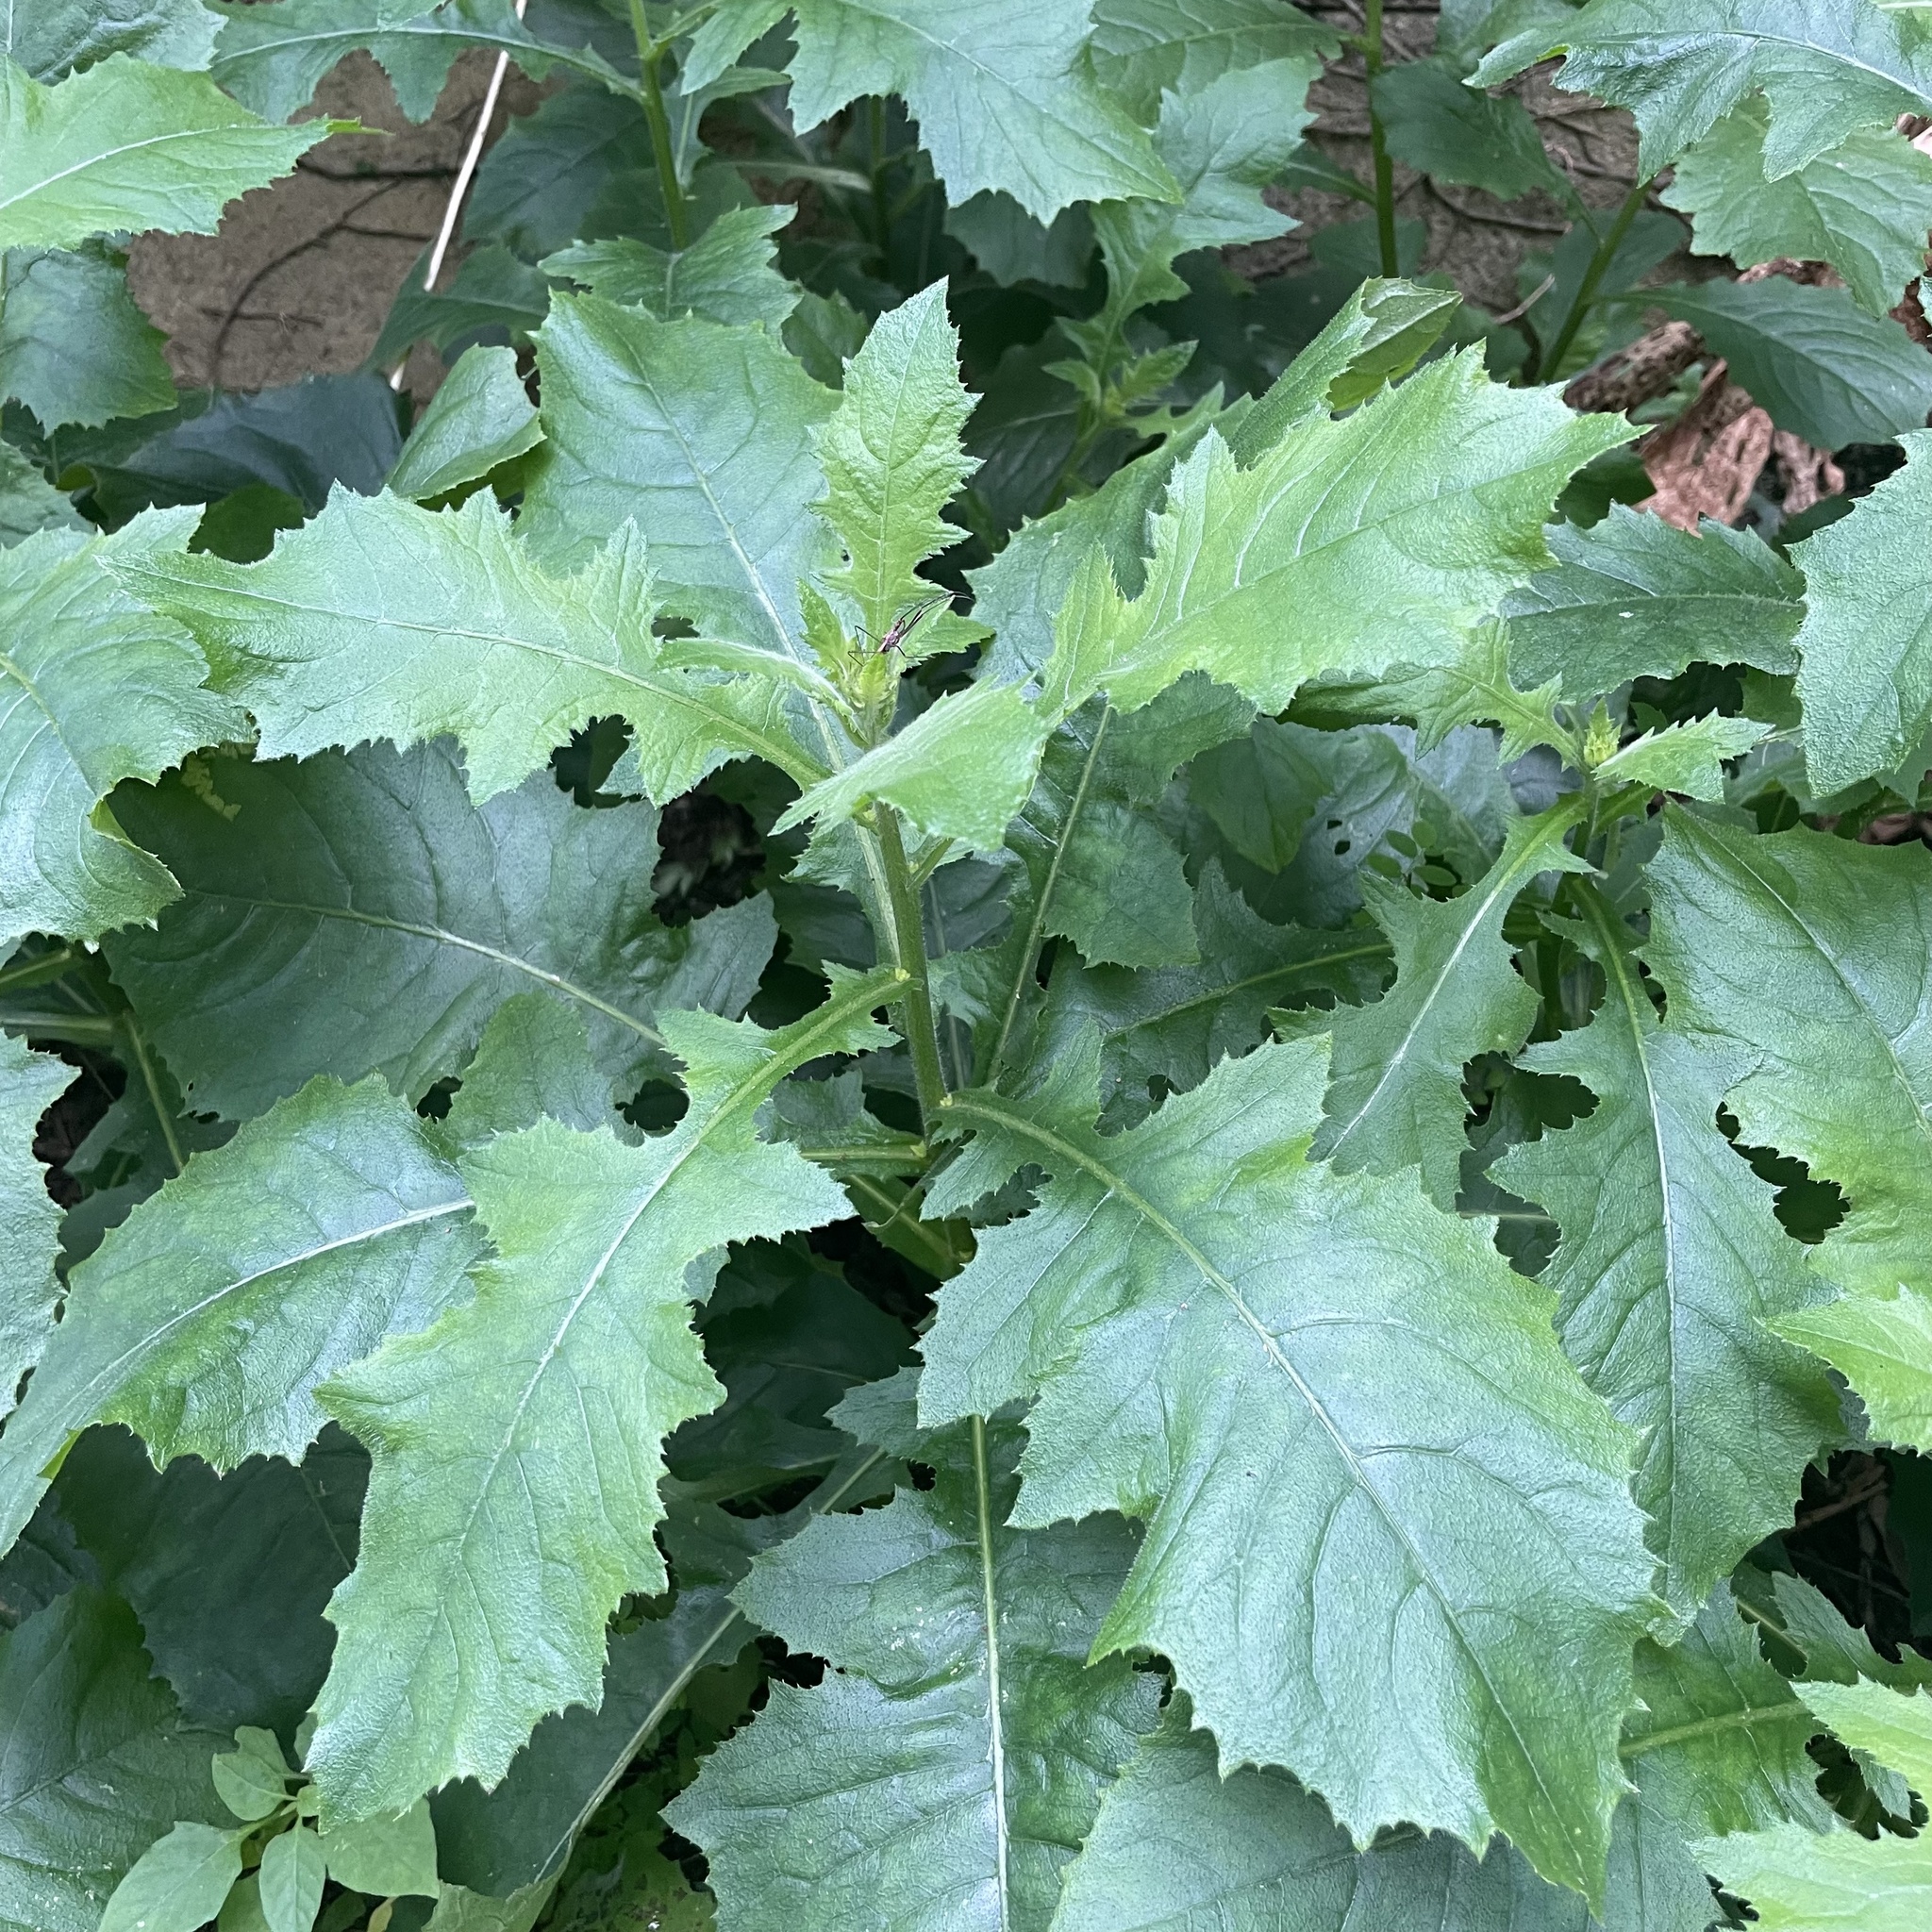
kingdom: Plantae
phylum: Tracheophyta
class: Magnoliopsida
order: Asterales
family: Asteraceae
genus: Blumea
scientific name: Blumea sinuata
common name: Cutleaf false oxtongue
